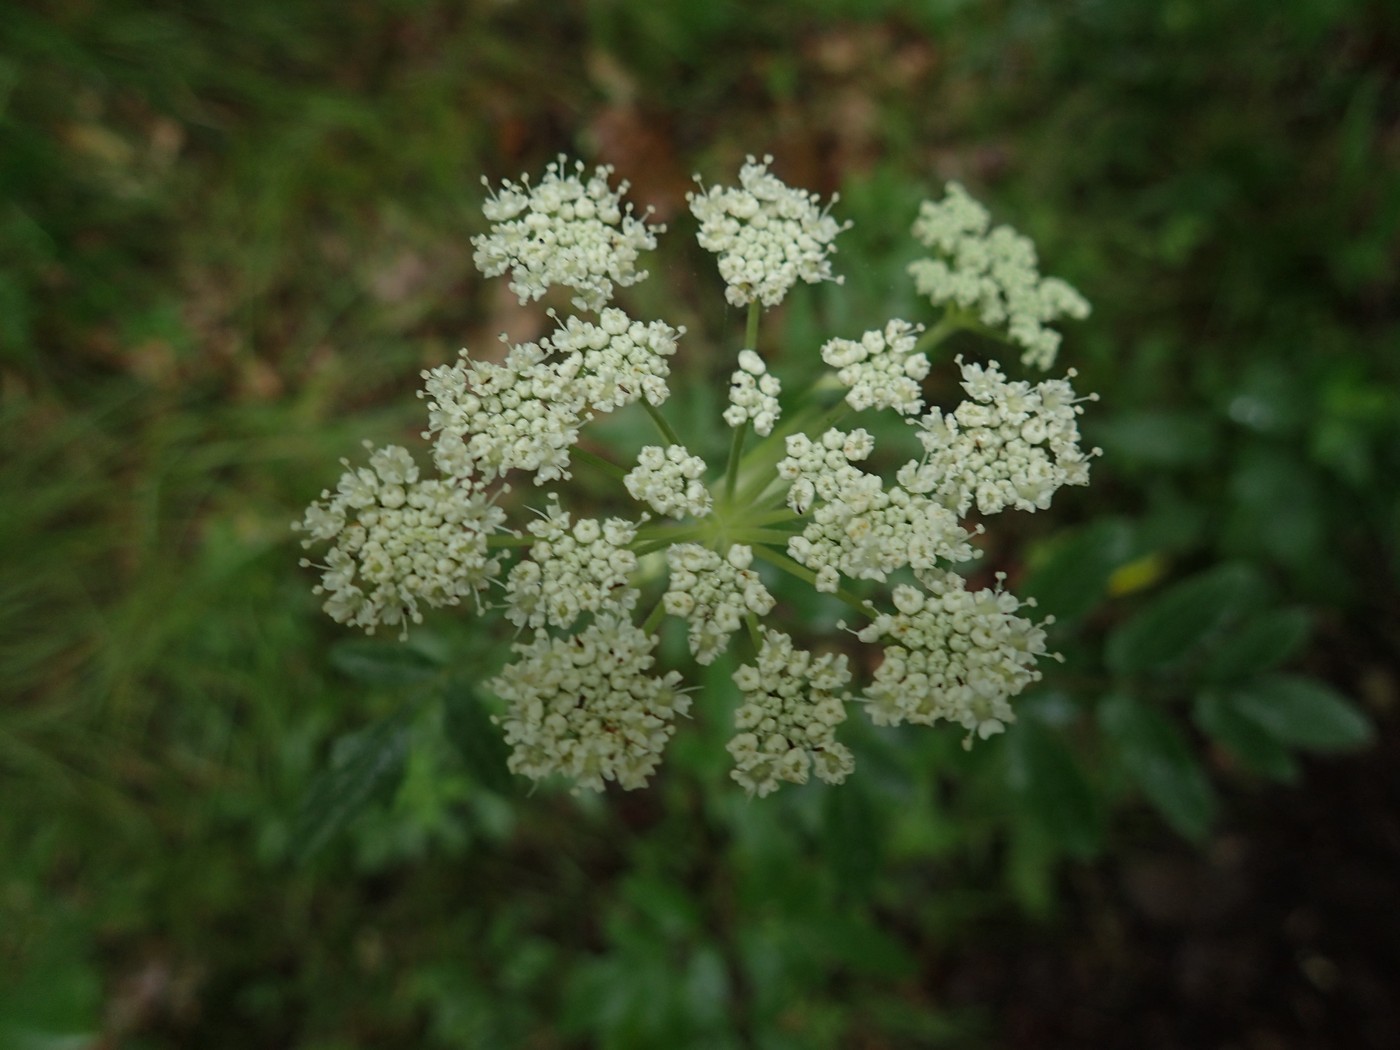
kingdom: Plantae
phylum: Tracheophyta
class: Magnoliopsida
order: Apiales
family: Apiaceae
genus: Angelica
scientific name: Angelica venenosa
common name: Hairy angelica
